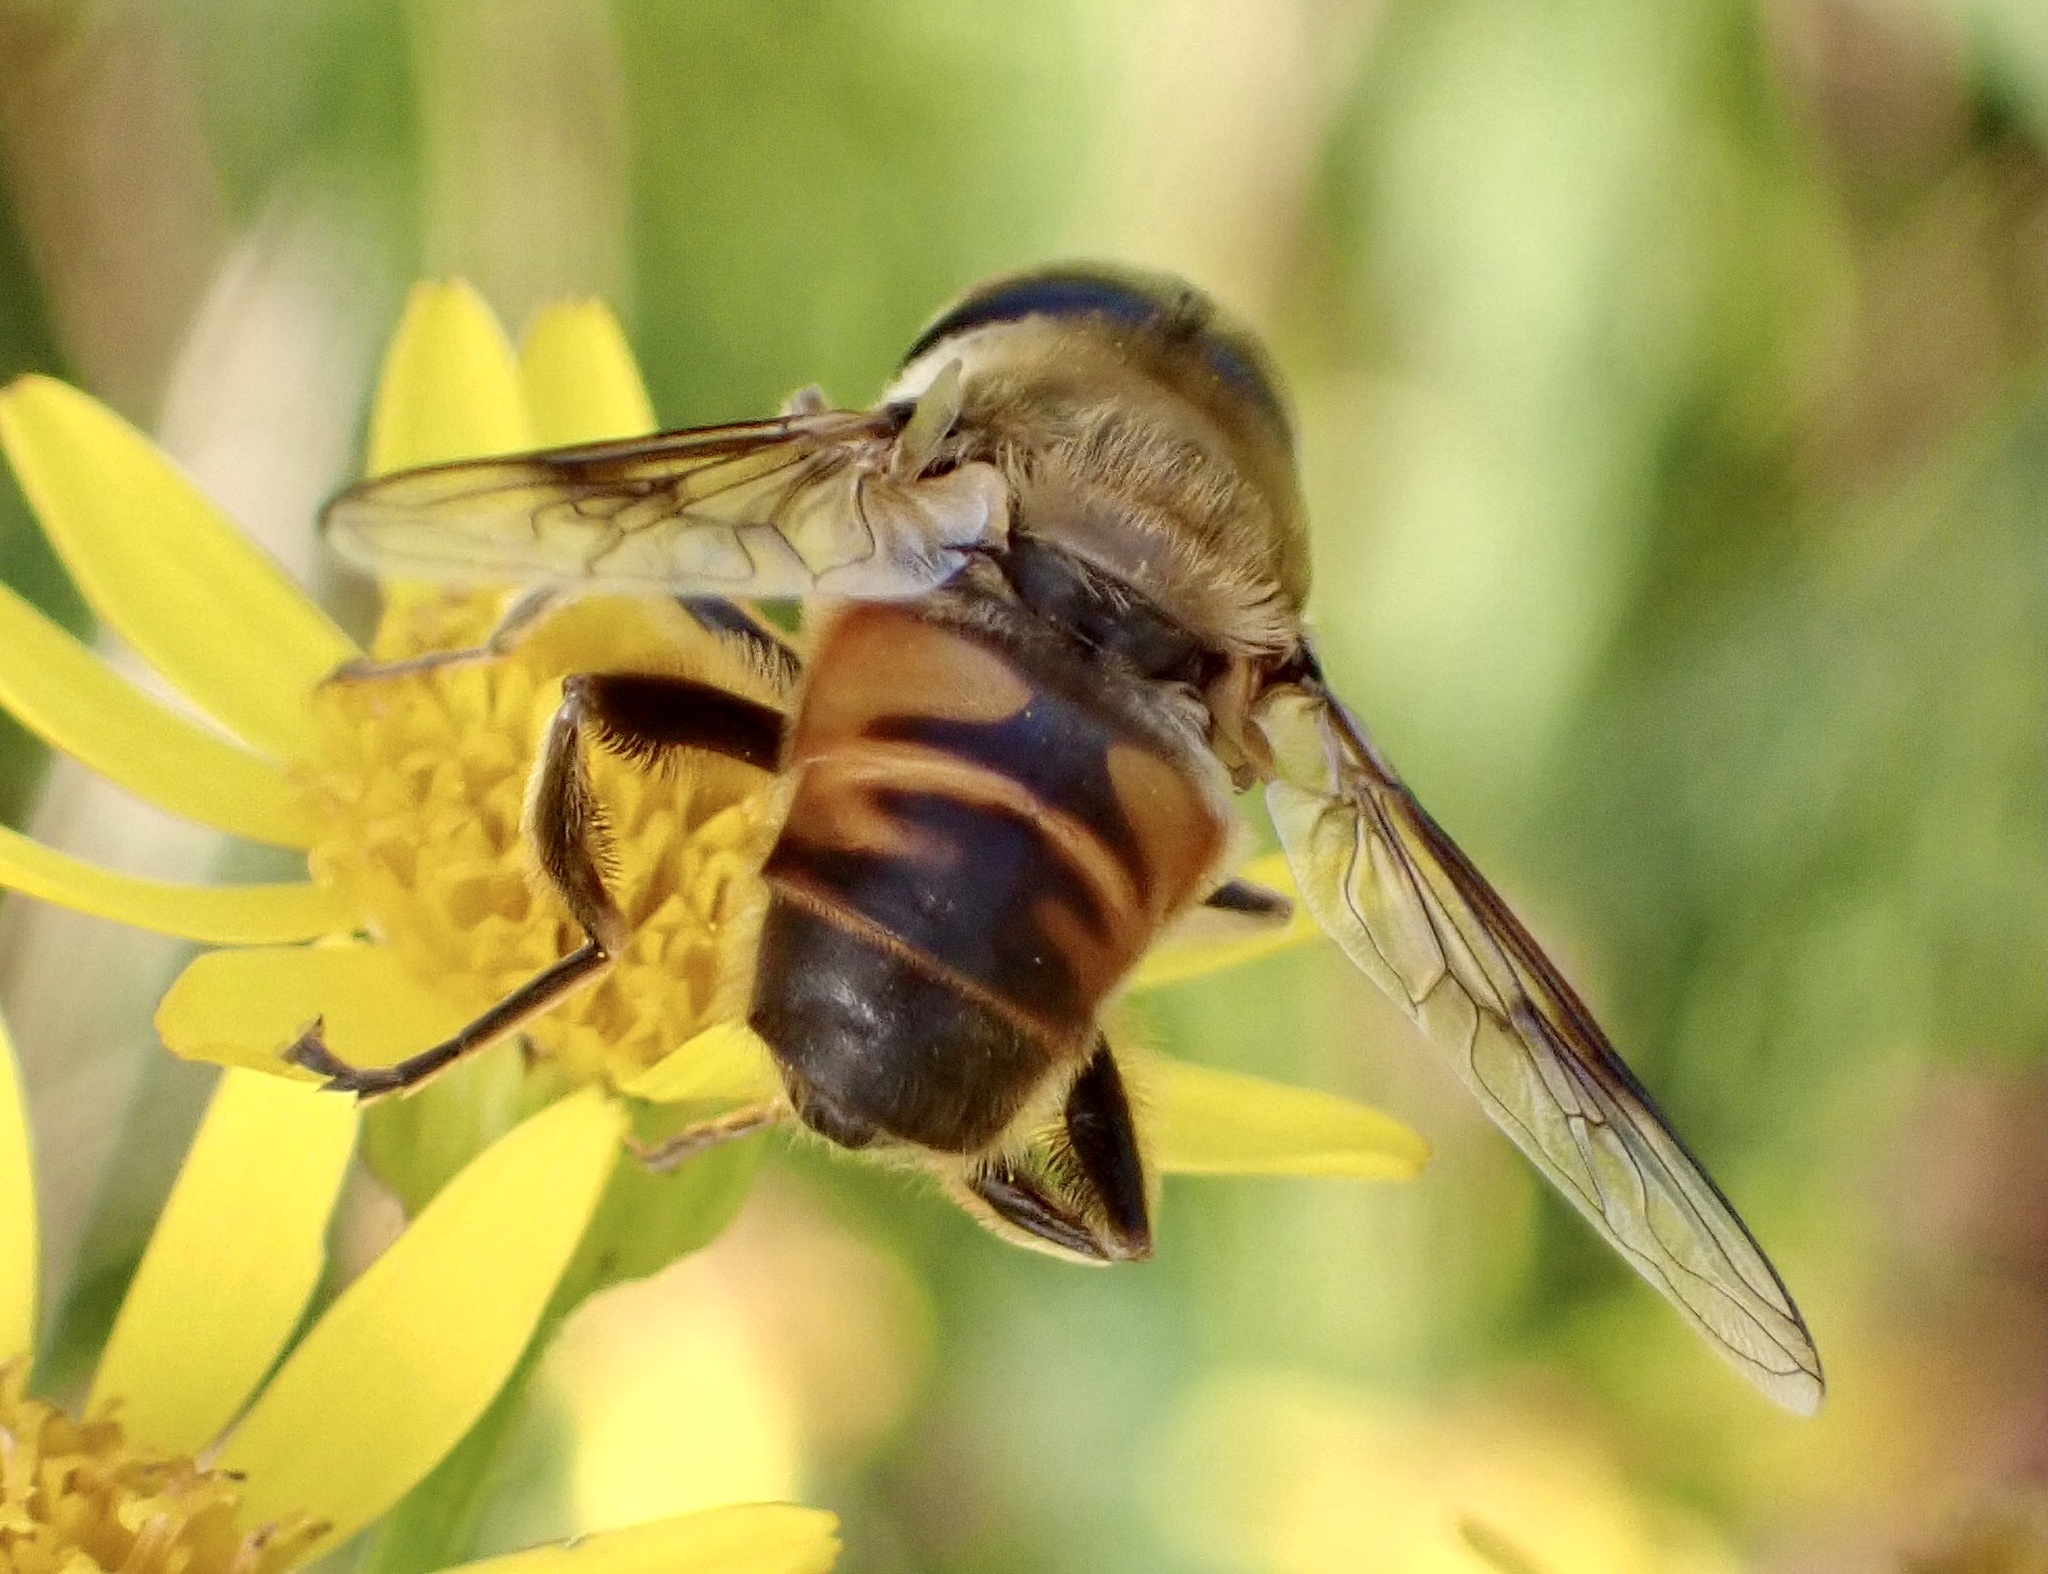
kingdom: Animalia
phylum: Arthropoda
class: Insecta
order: Diptera
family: Syrphidae
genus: Eristalis
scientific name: Eristalis tenax
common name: Drone fly
